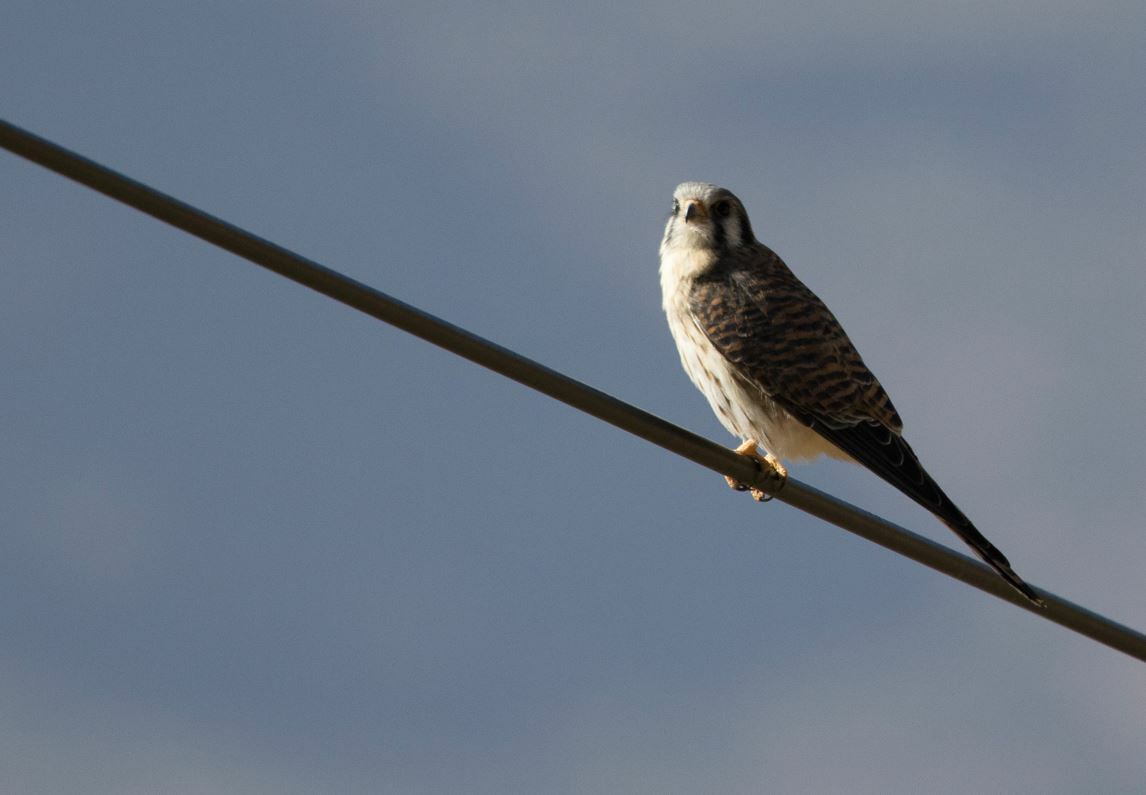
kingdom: Animalia
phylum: Chordata
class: Aves
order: Falconiformes
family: Falconidae
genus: Falco
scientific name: Falco sparverius
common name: American kestrel
